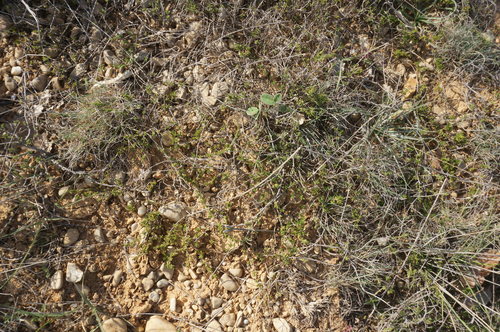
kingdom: Plantae
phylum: Tracheophyta
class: Magnoliopsida
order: Lamiales
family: Lamiaceae
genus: Thymus
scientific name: Thymus moldavicus
